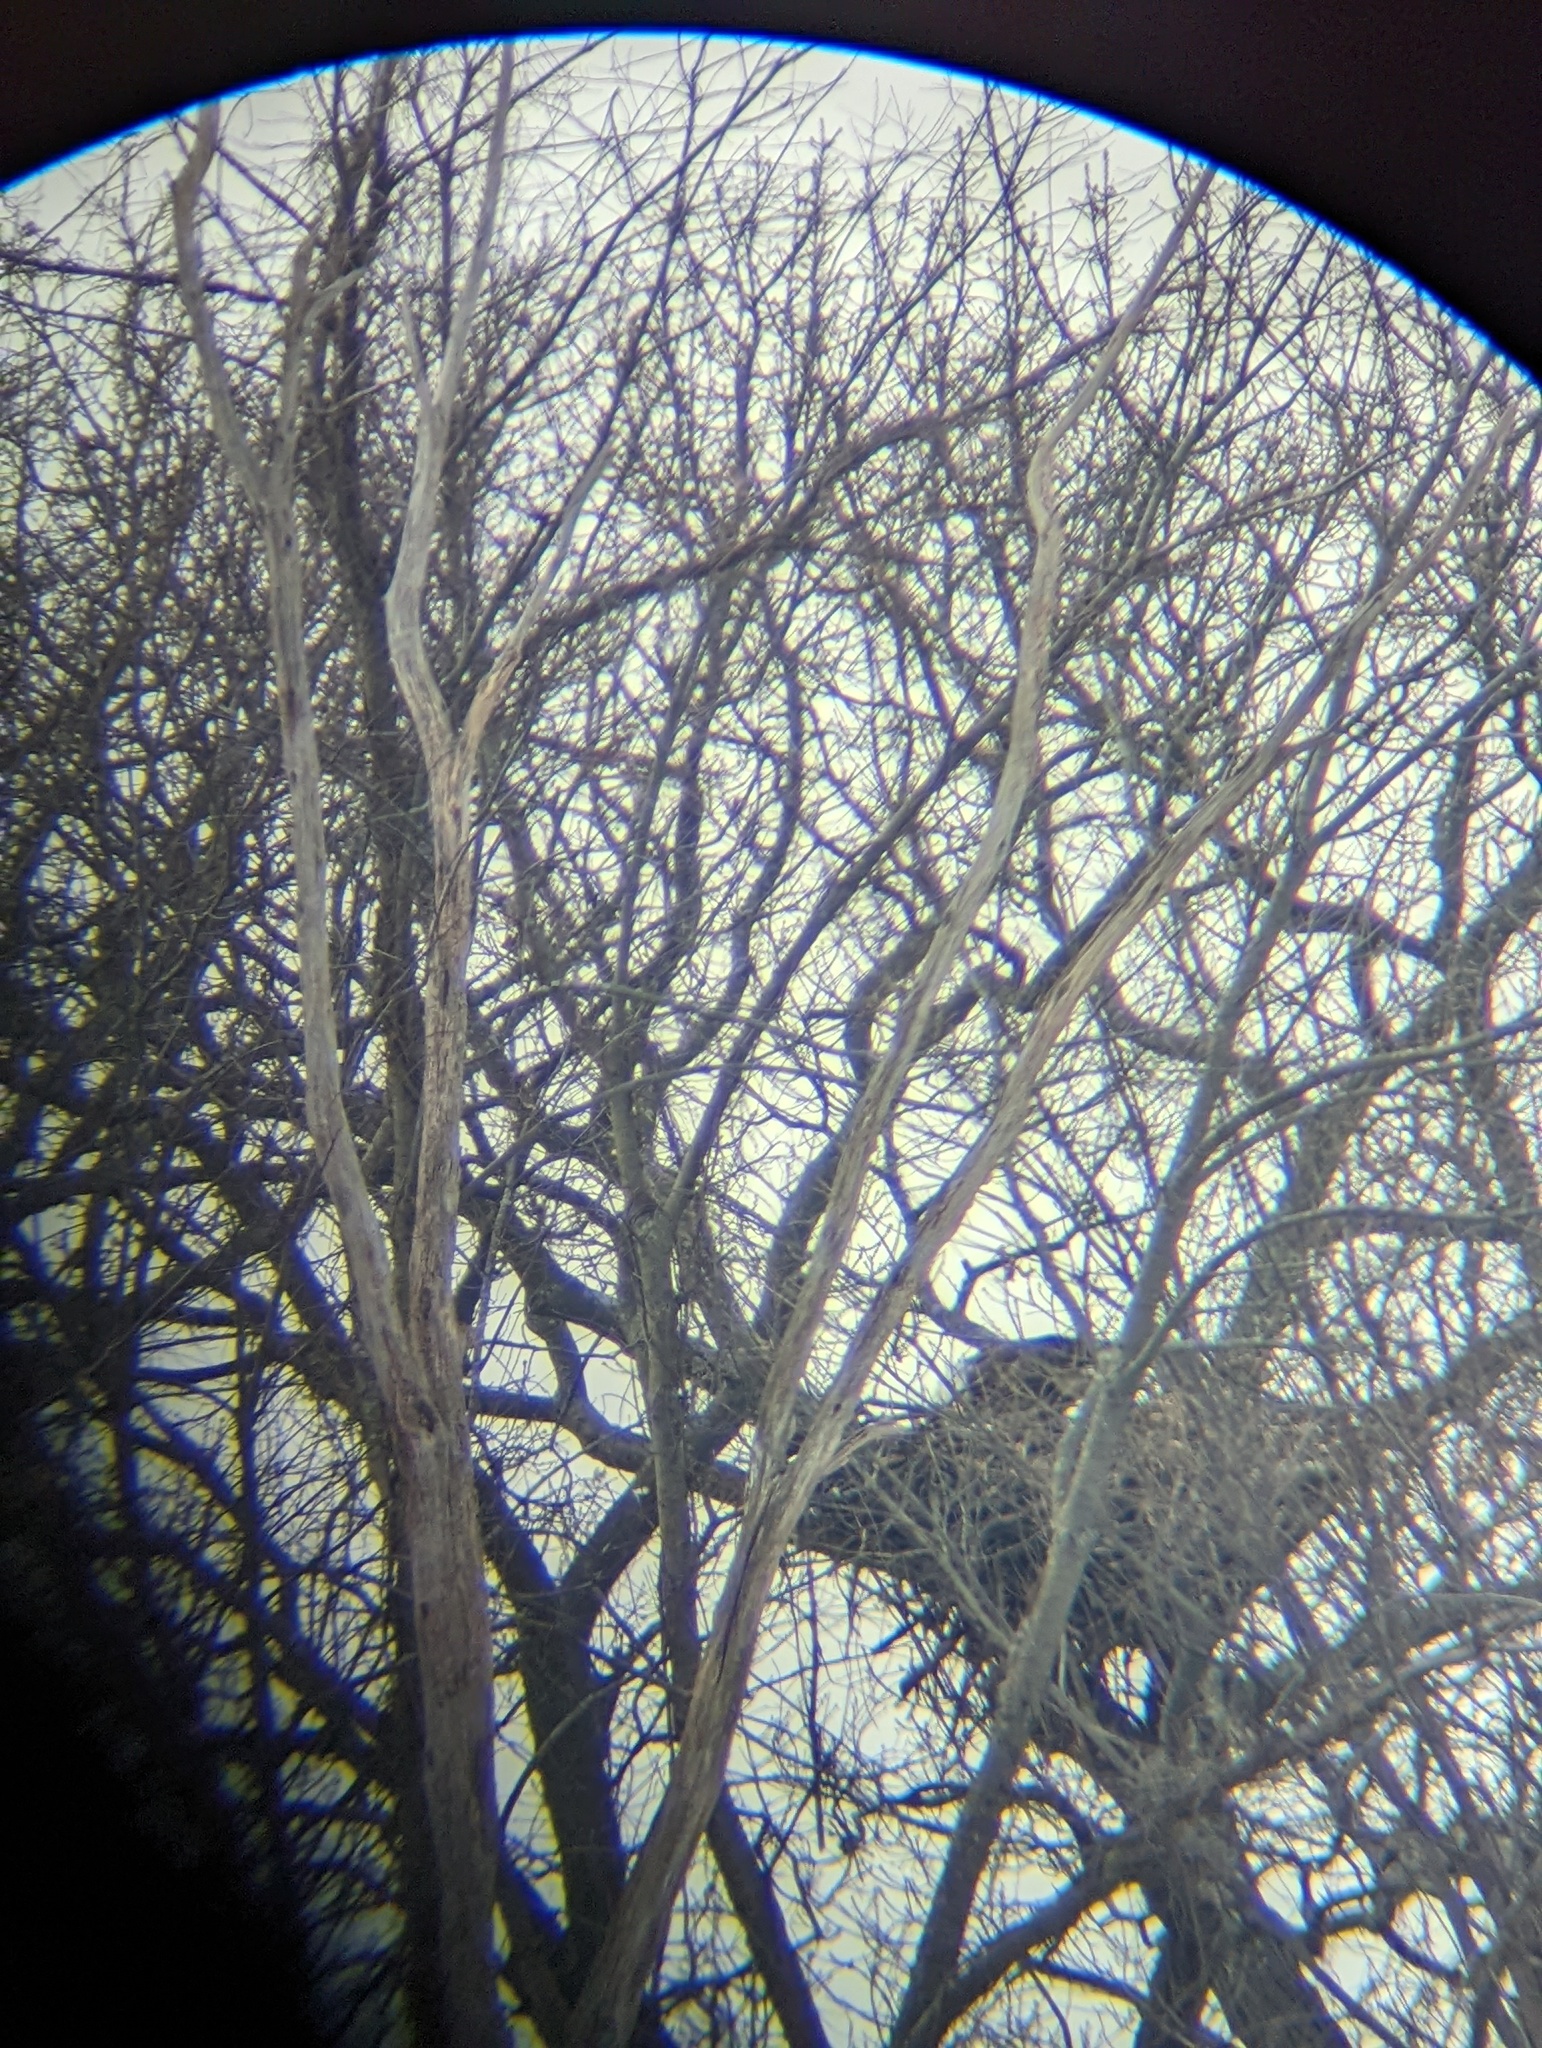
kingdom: Animalia
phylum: Chordata
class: Aves
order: Accipitriformes
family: Accipitridae
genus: Haliaeetus
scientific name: Haliaeetus leucocephalus
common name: Bald eagle
